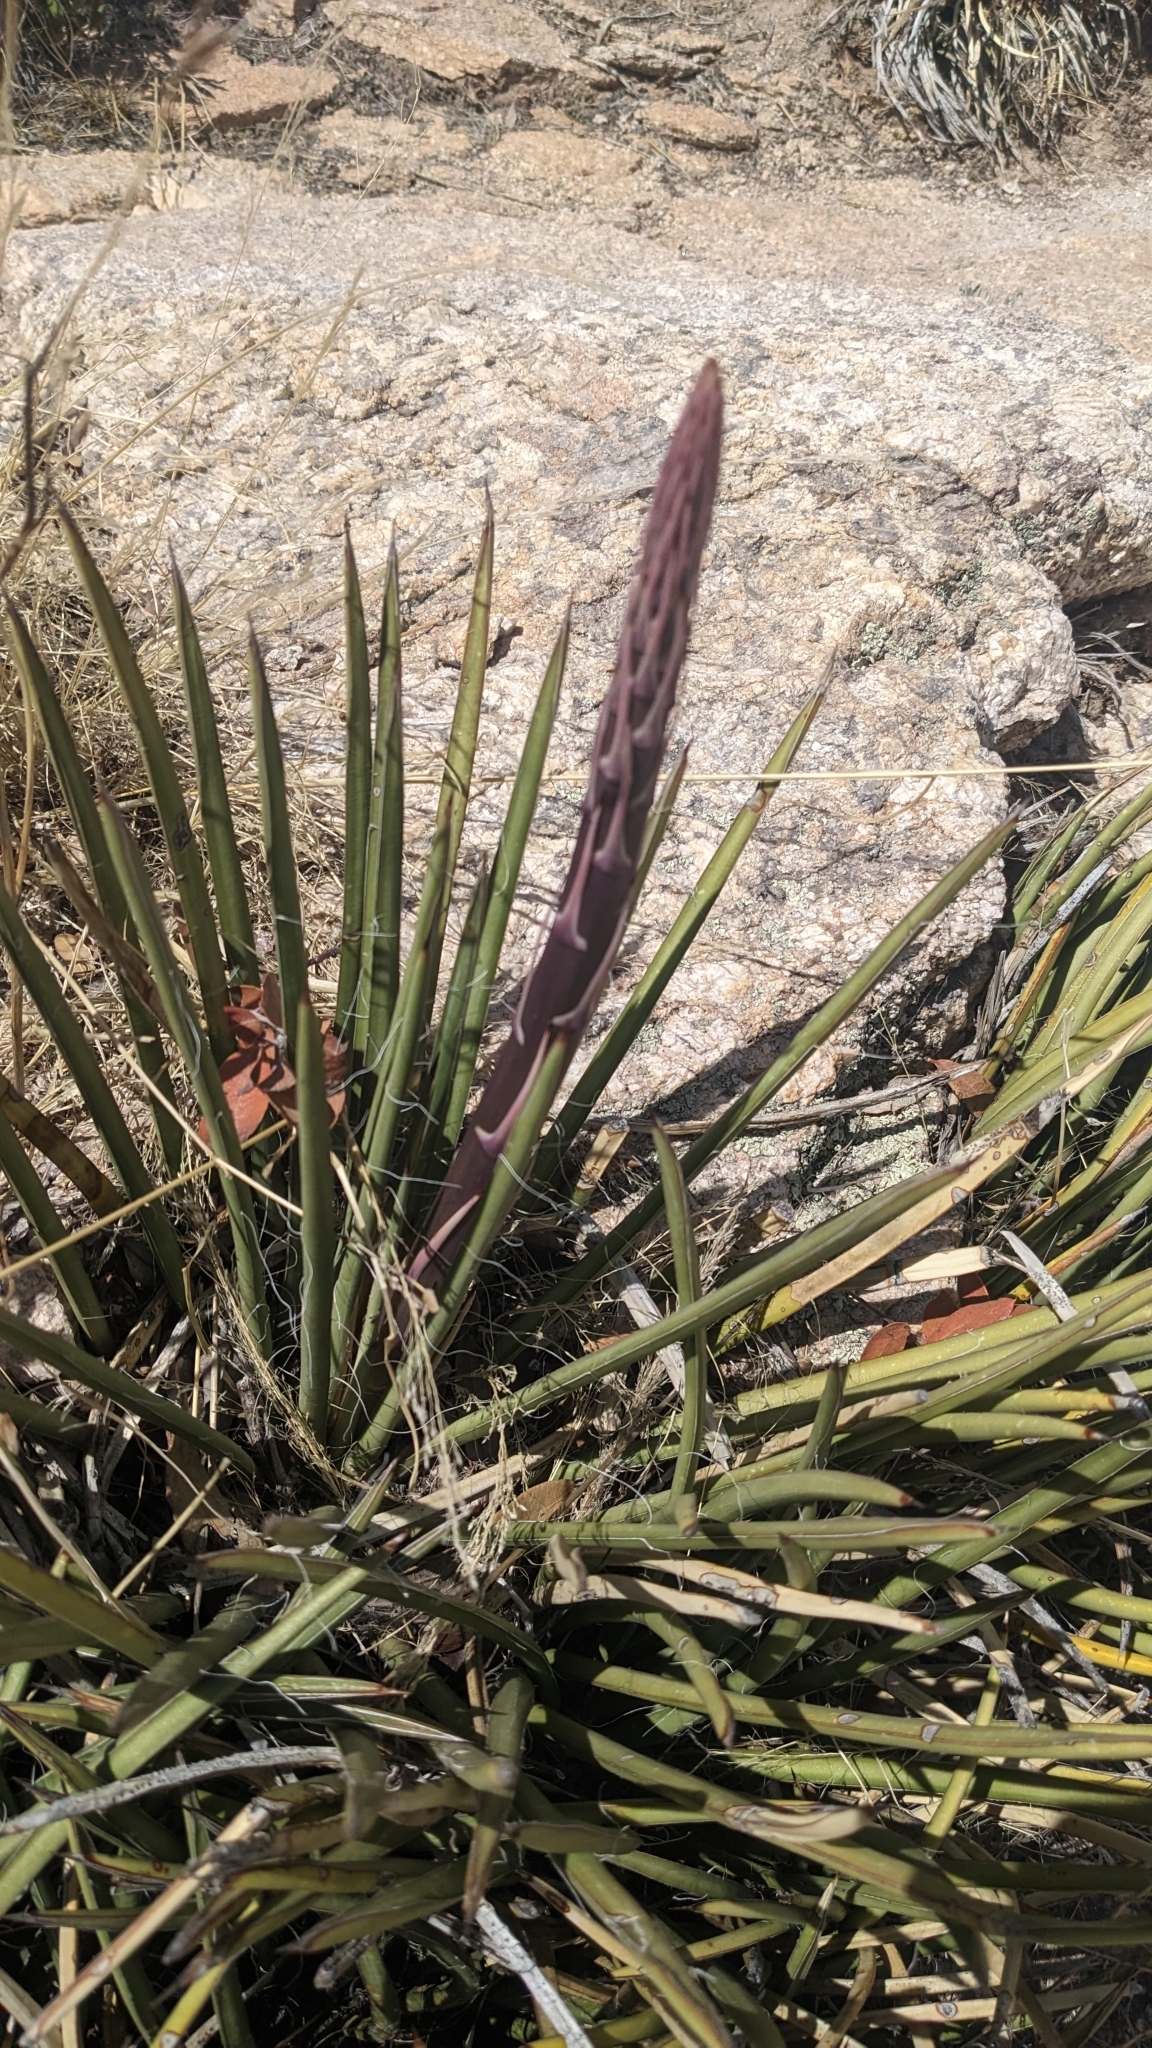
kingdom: Plantae
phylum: Tracheophyta
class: Liliopsida
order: Asparagales
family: Asparagaceae
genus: Agave
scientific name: Agave schottii
